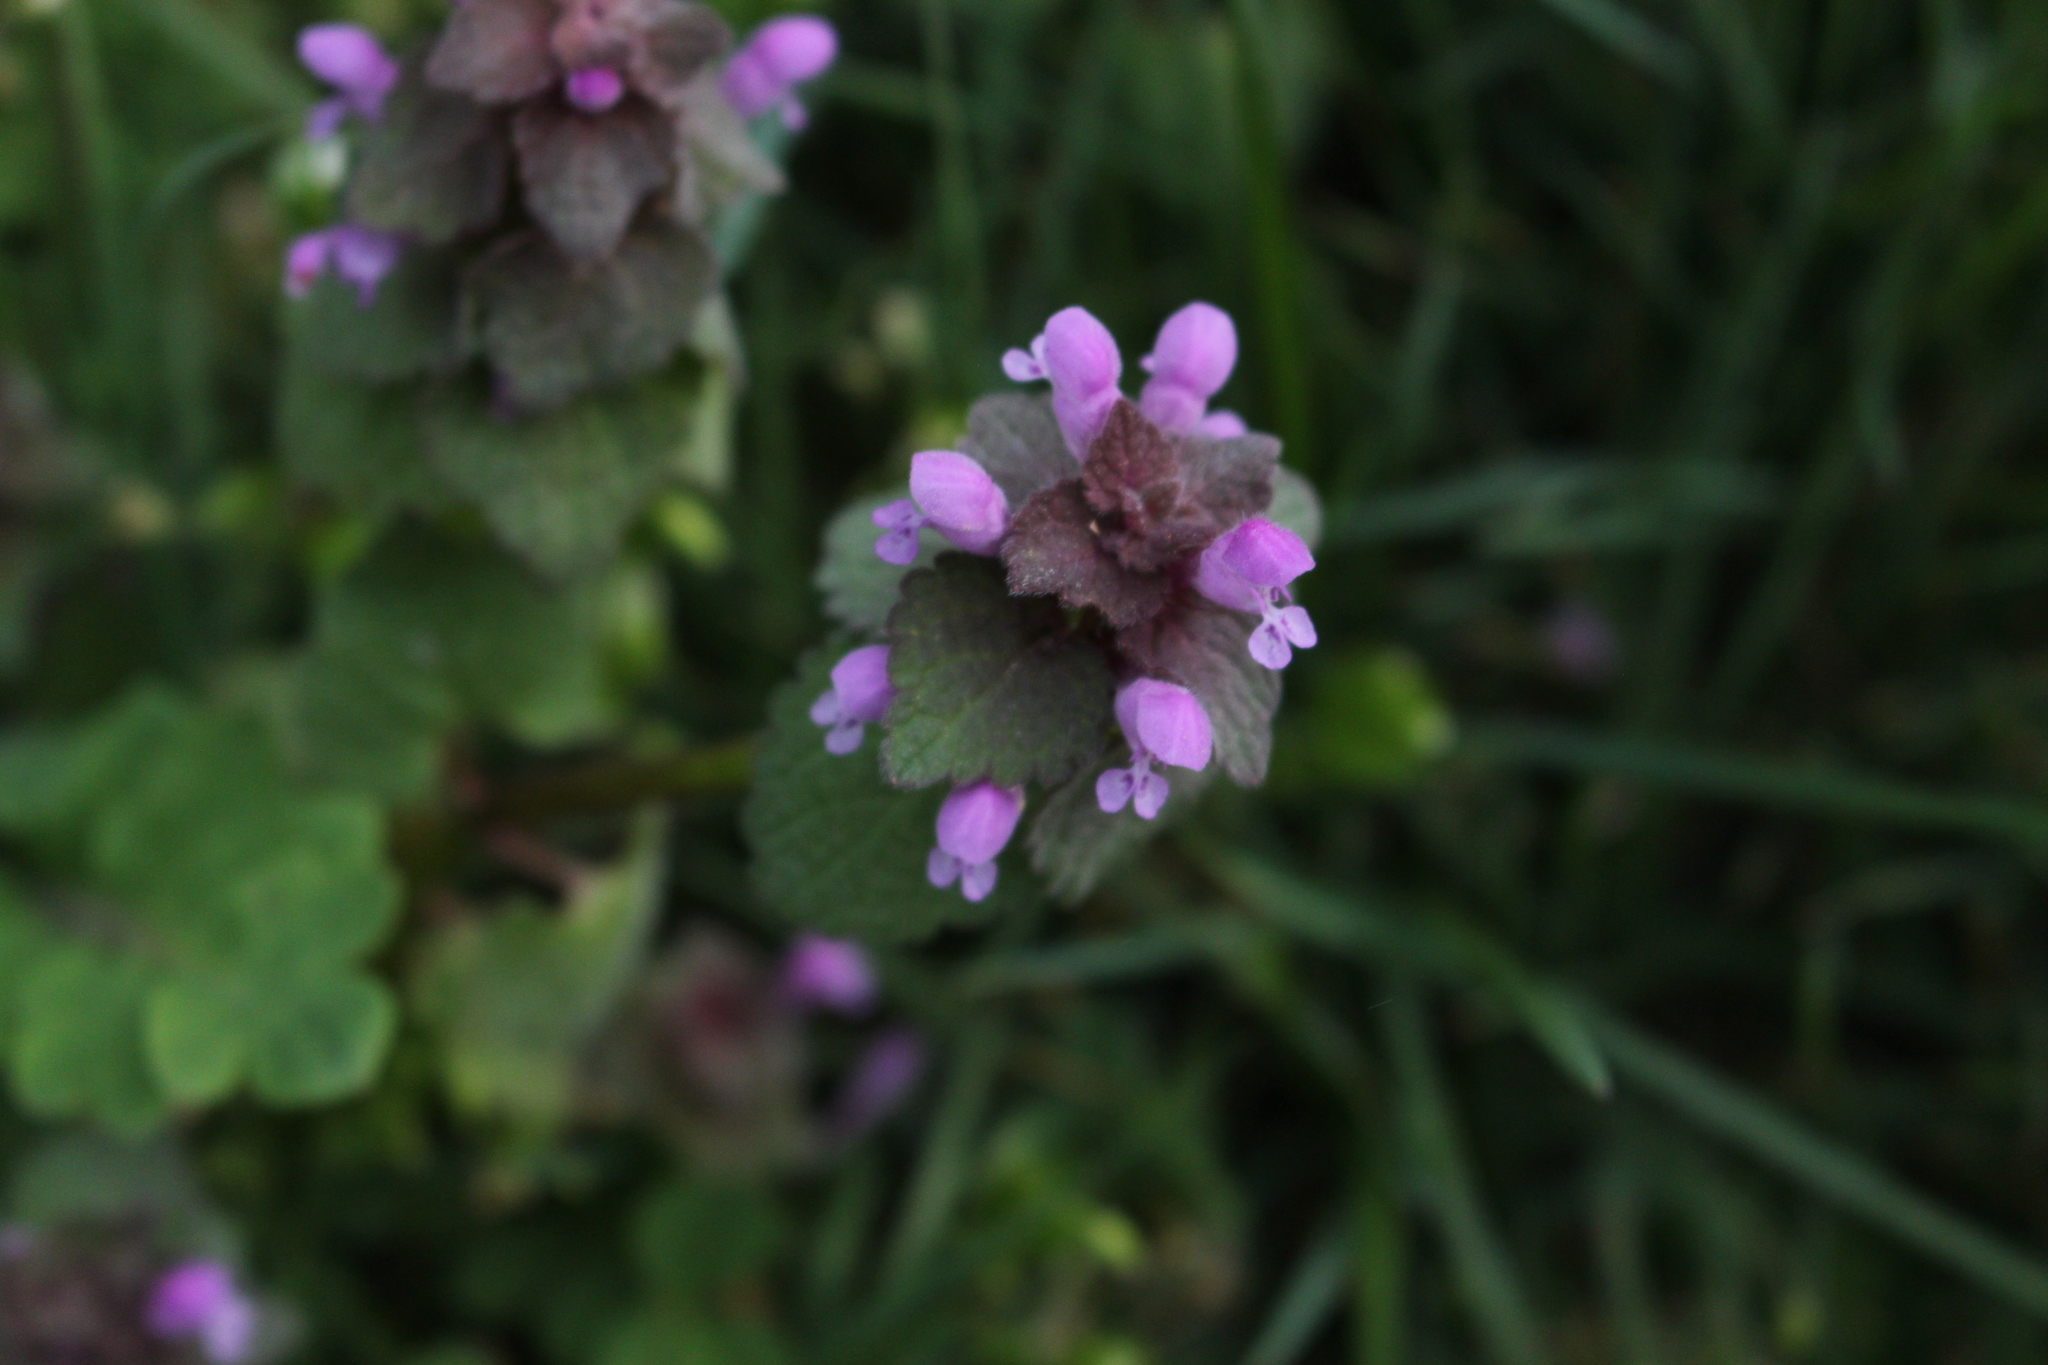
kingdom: Plantae
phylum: Tracheophyta
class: Magnoliopsida
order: Lamiales
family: Lamiaceae
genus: Lamium
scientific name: Lamium purpureum
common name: Red dead-nettle
